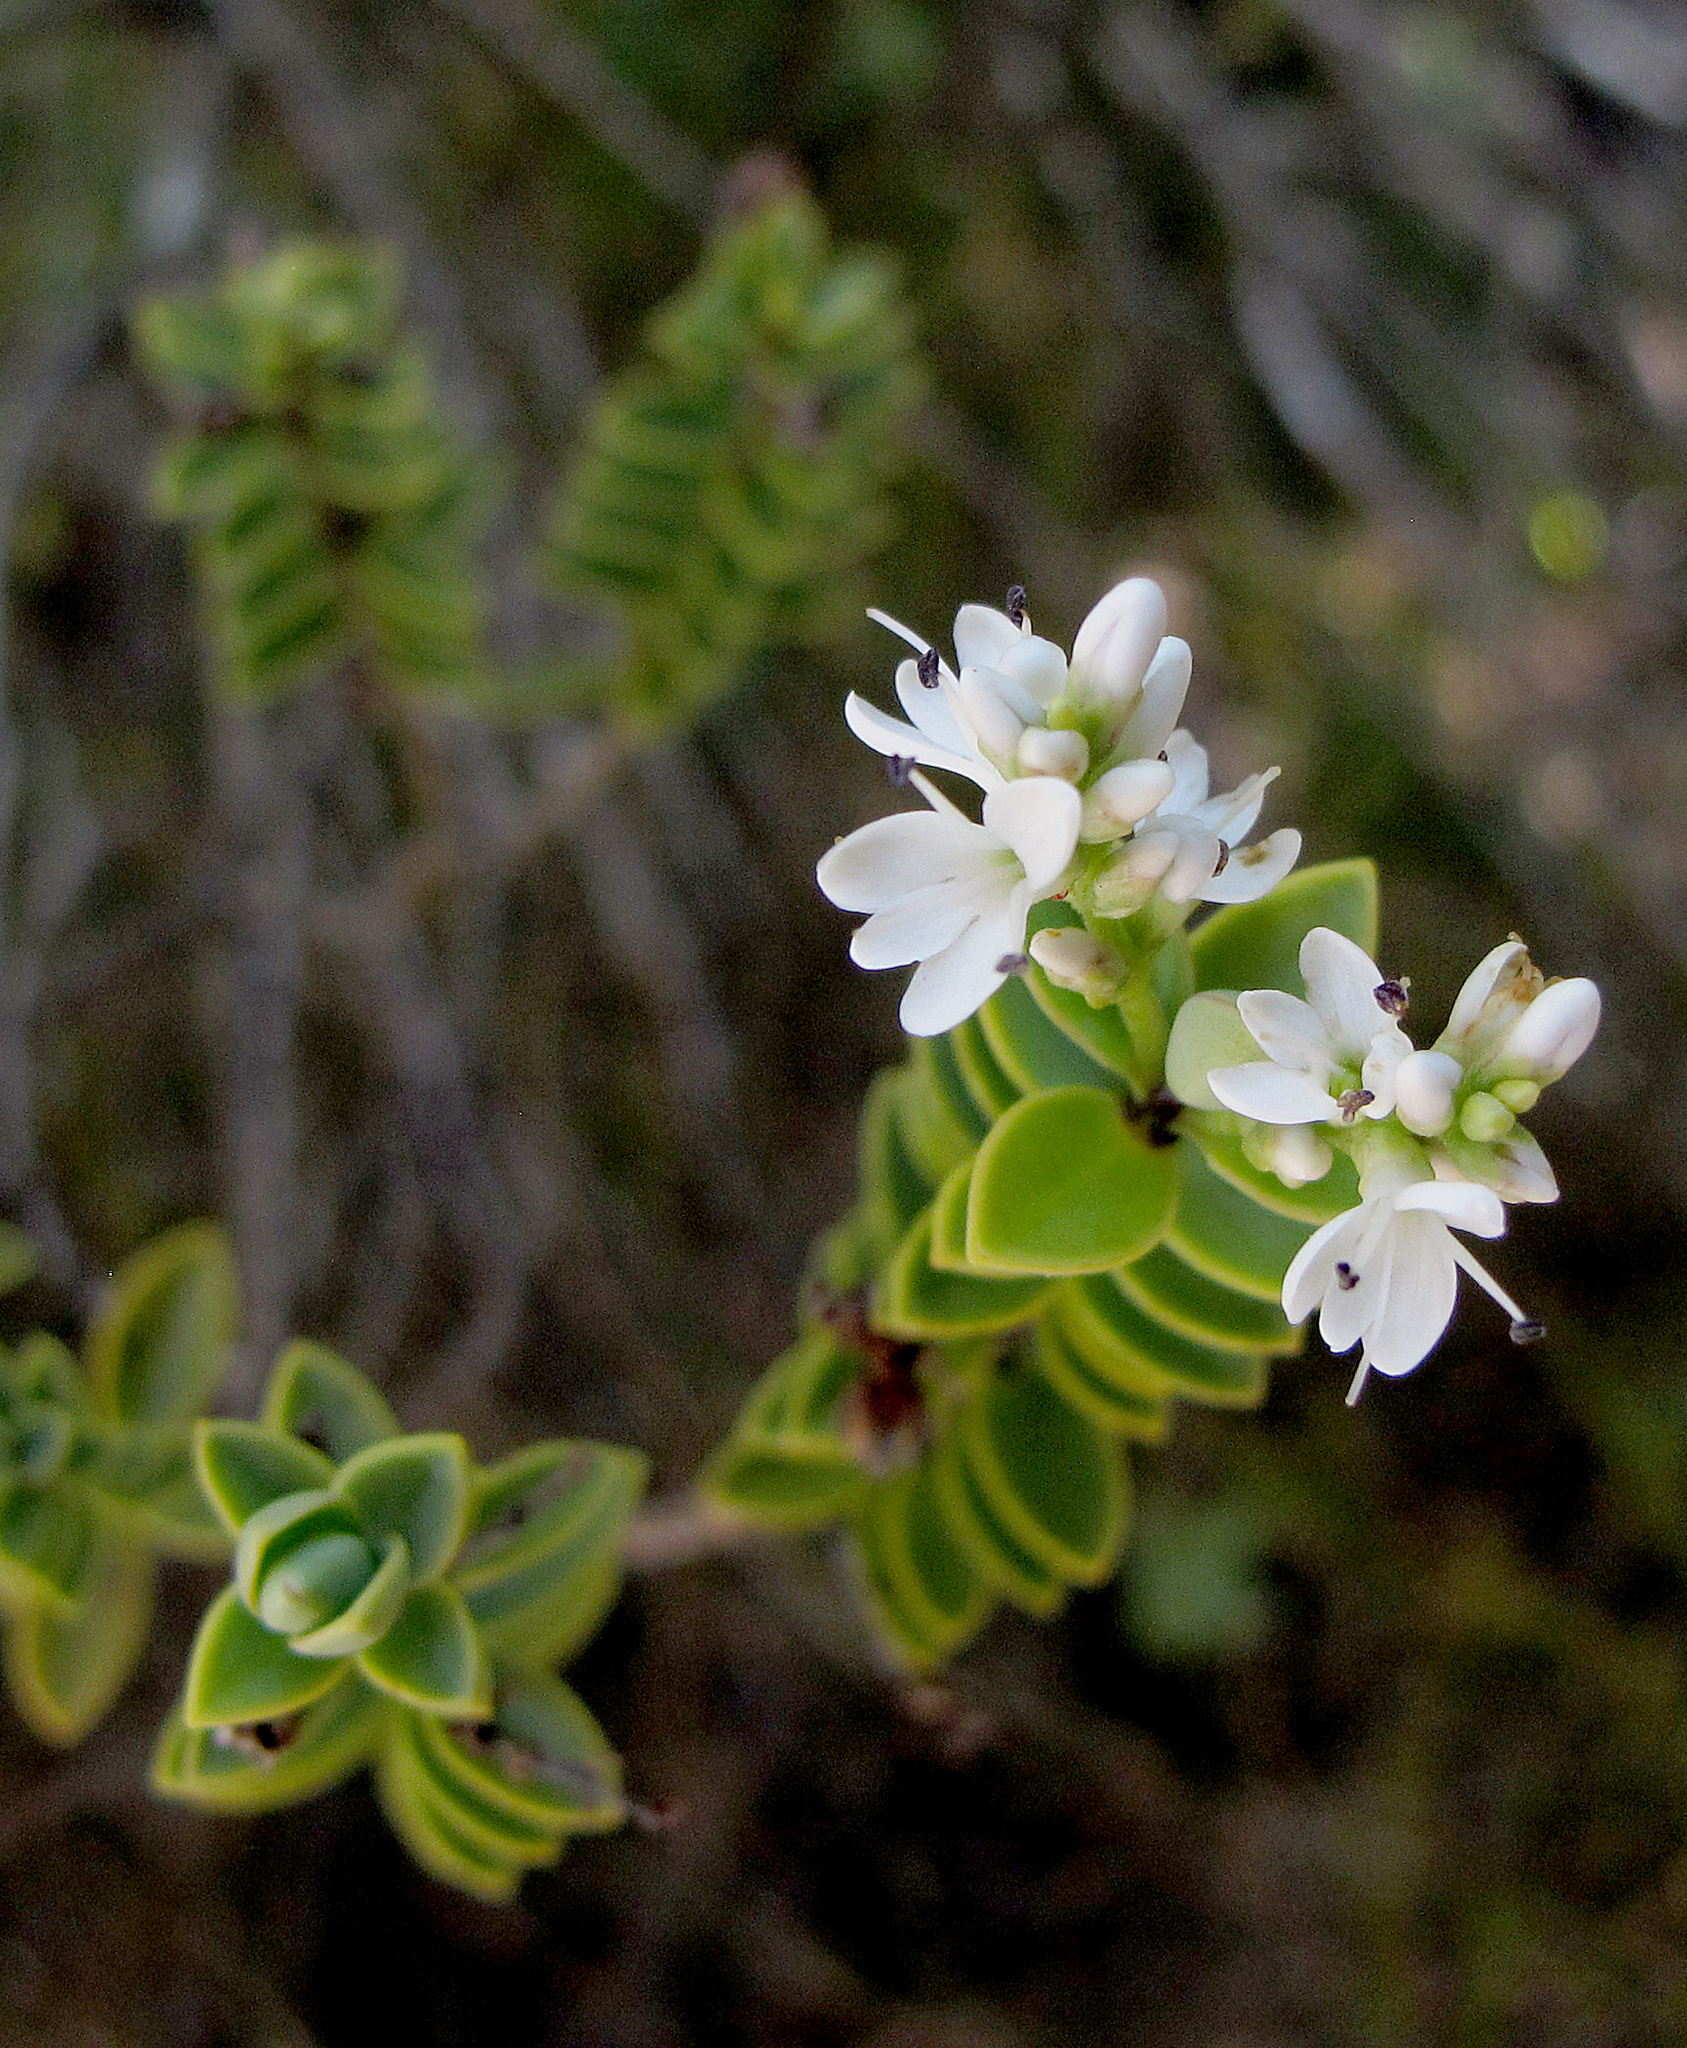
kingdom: Plantae
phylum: Tracheophyta
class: Magnoliopsida
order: Lamiales
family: Plantaginaceae
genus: Veronica
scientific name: Veronica baylyi
